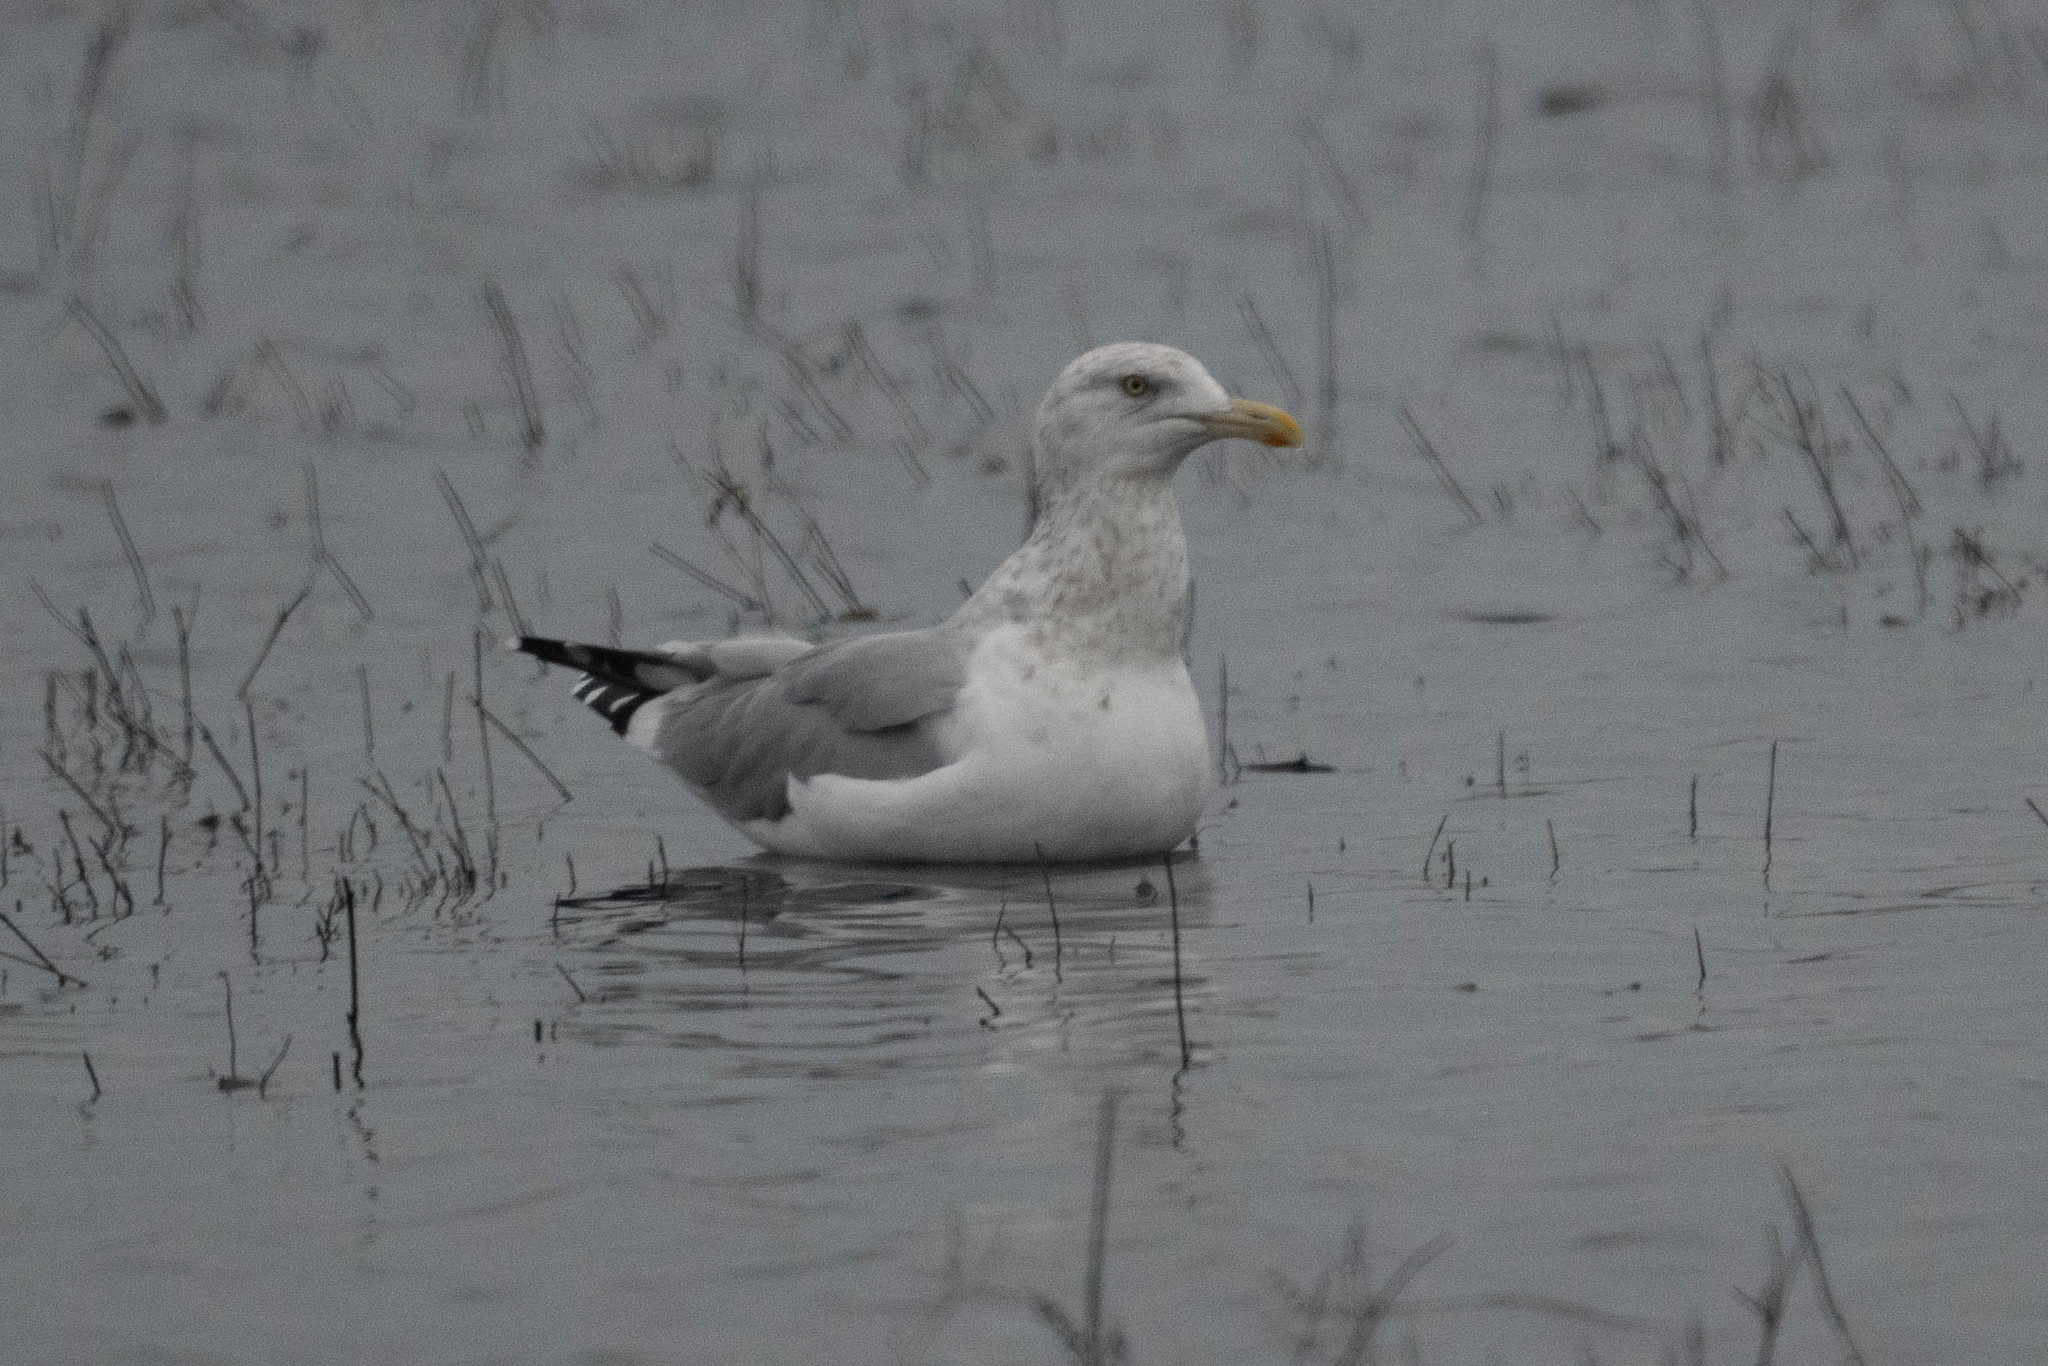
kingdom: Animalia
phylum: Chordata
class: Aves
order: Charadriiformes
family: Laridae
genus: Larus
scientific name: Larus argentatus
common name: Herring gull
